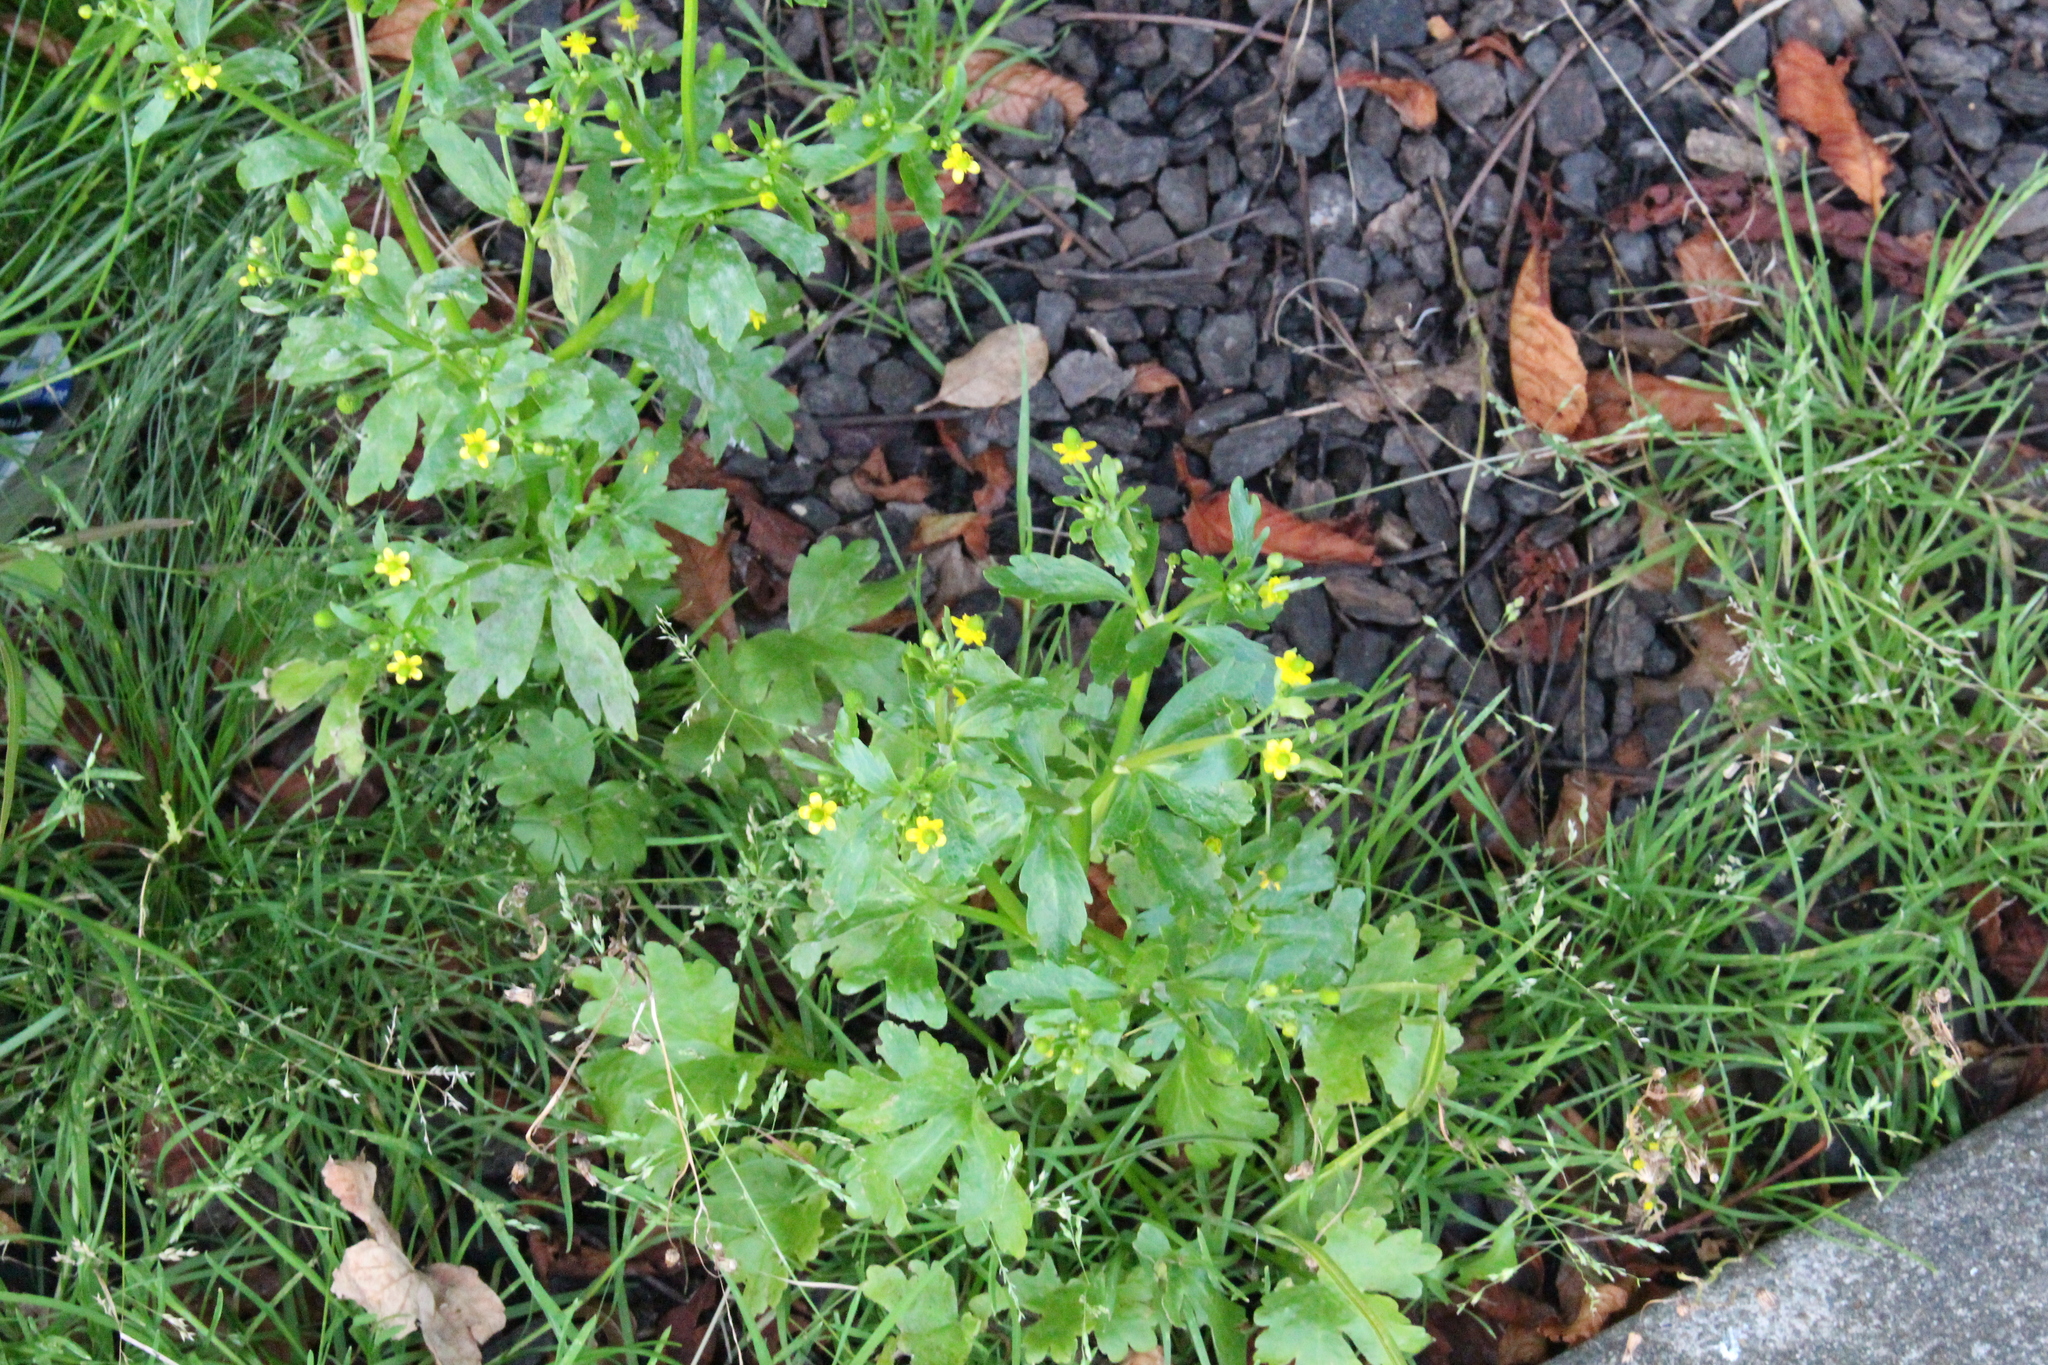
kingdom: Plantae
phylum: Tracheophyta
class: Magnoliopsida
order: Ranunculales
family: Ranunculaceae
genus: Ranunculus
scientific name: Ranunculus sceleratus
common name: Celery-leaved buttercup
